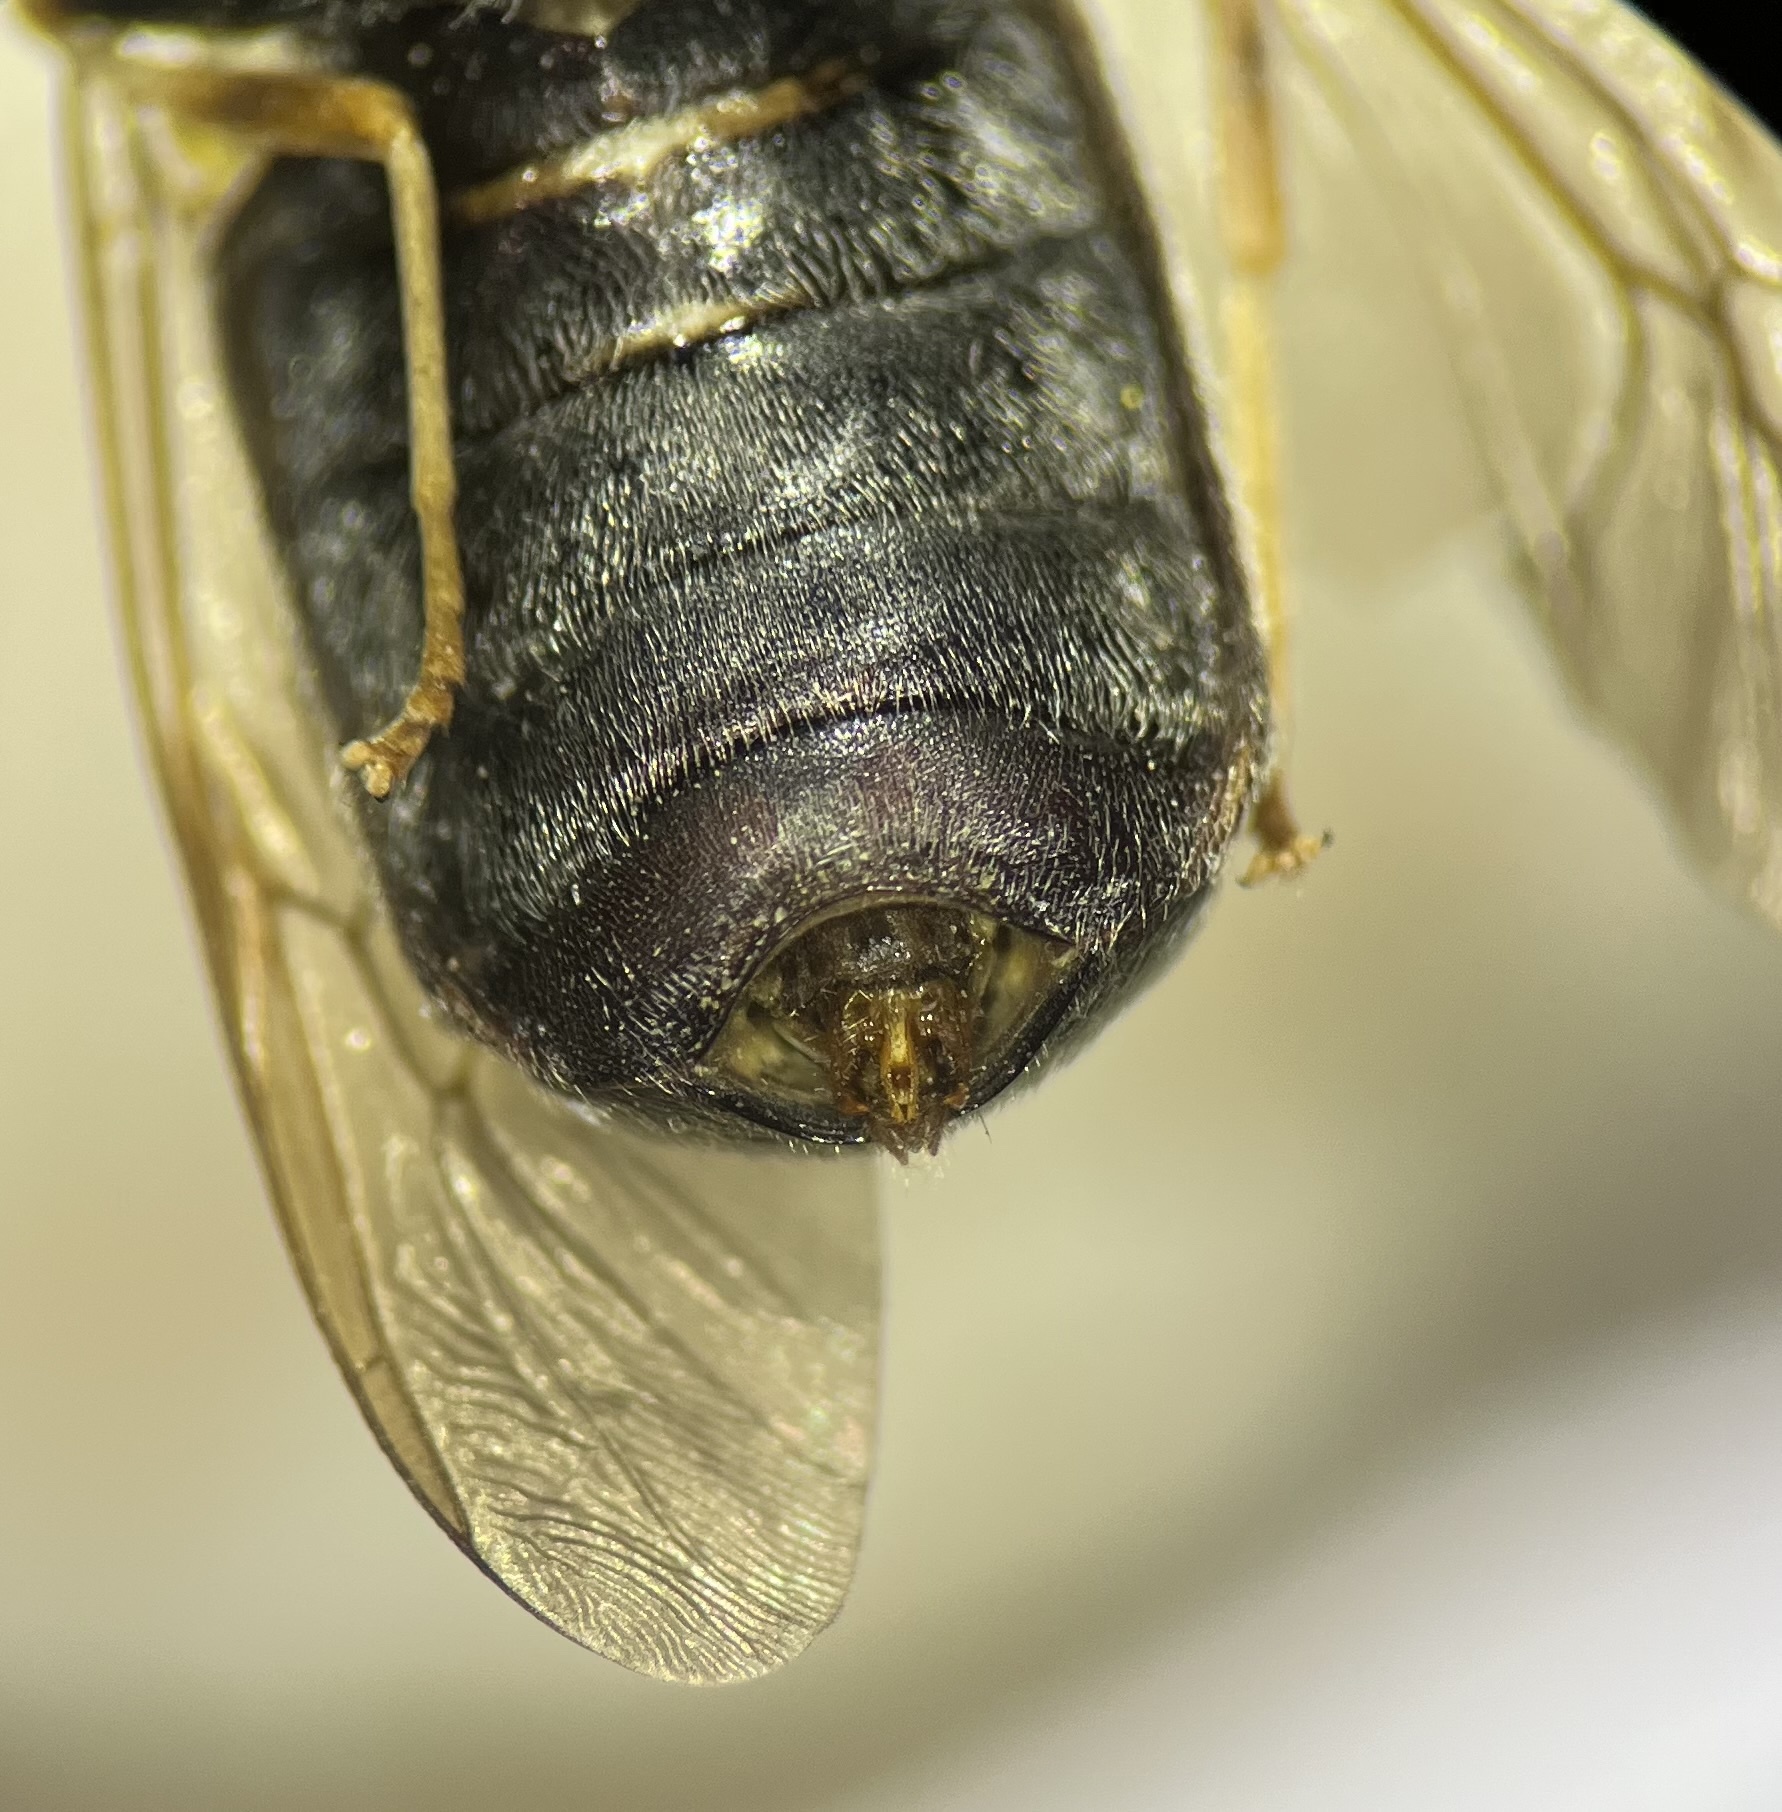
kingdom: Animalia
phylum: Arthropoda
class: Insecta
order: Diptera
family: Stratiomyidae
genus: Hermetia
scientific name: Hermetia nigricornis
